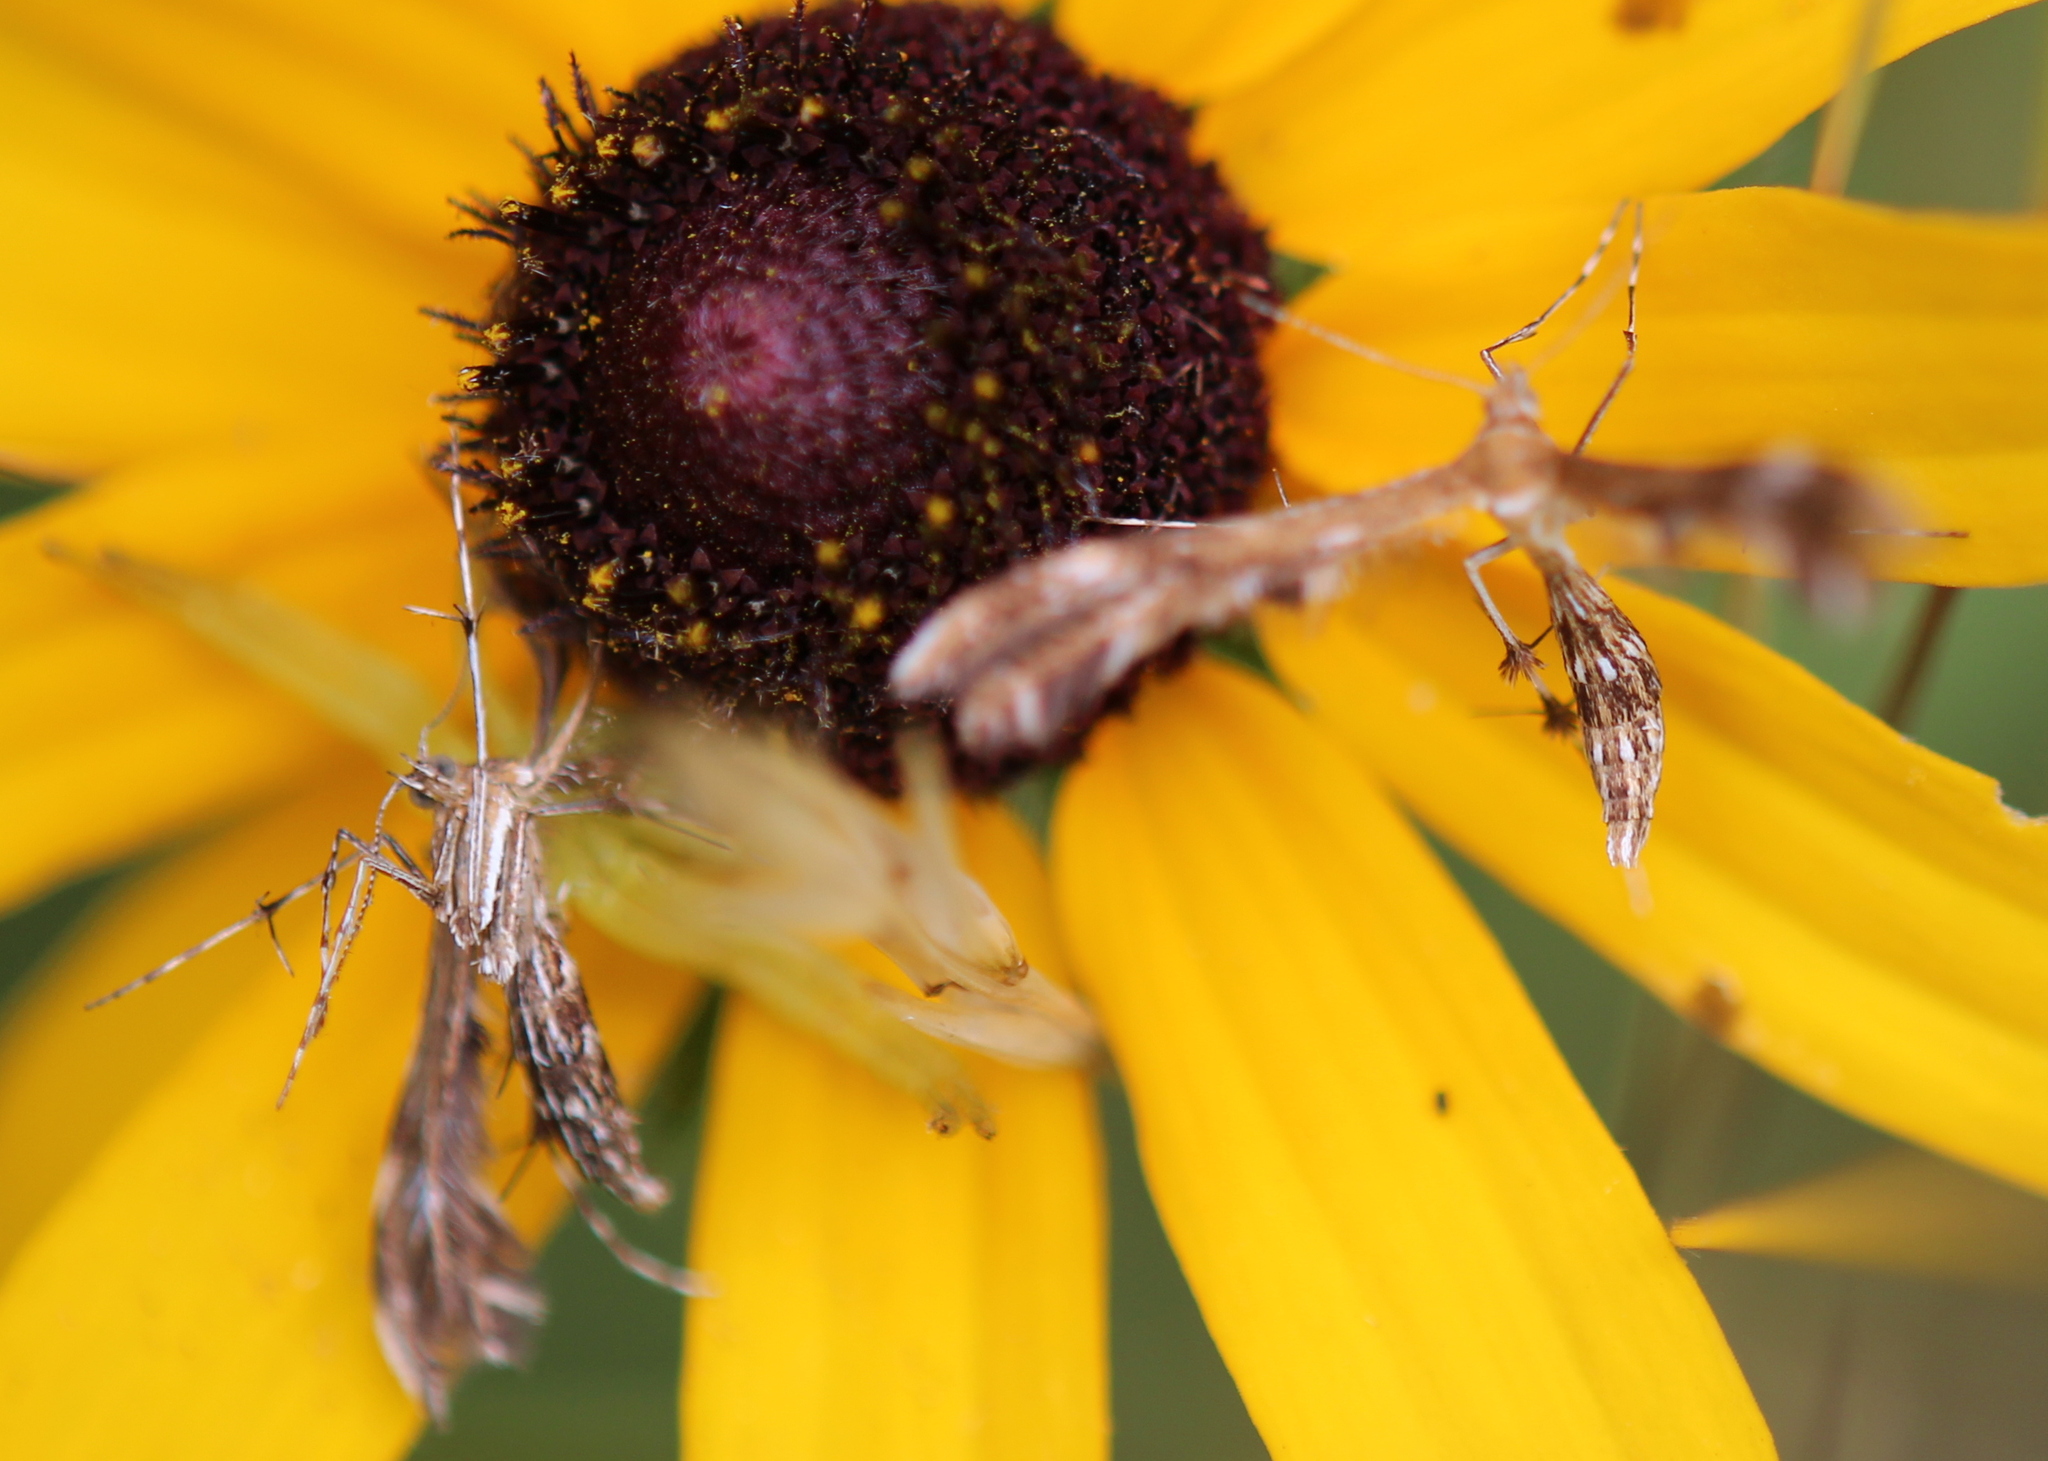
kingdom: Animalia
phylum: Arthropoda
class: Insecta
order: Lepidoptera
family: Pterophoridae
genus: Dejongia
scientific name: Dejongia lobidactylus
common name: Lobed plume moth
